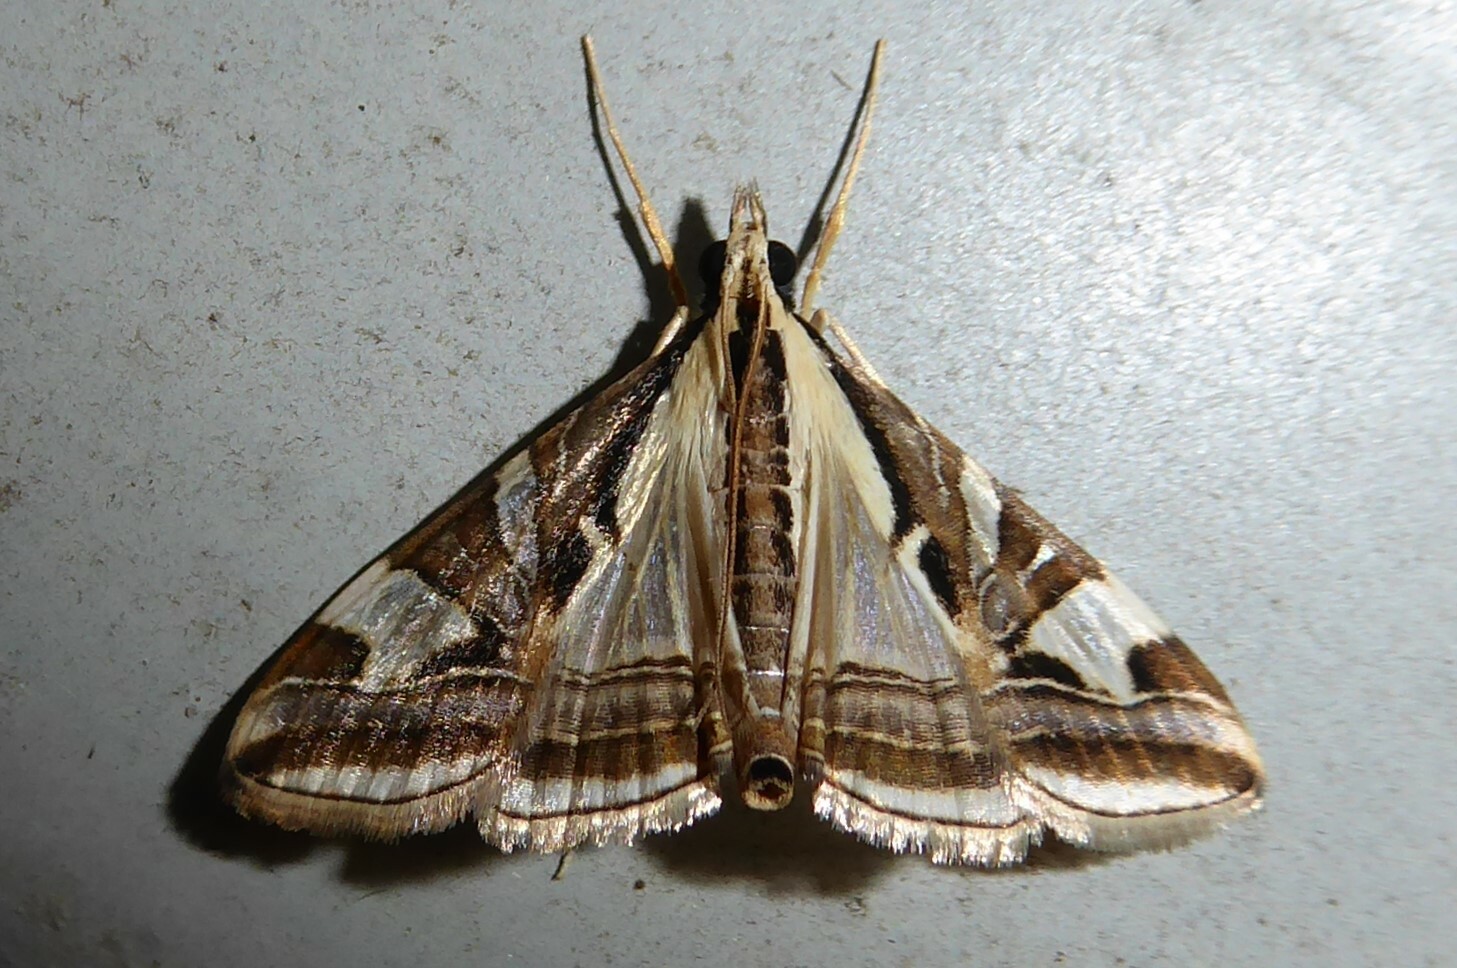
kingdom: Animalia
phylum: Arthropoda
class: Insecta
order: Lepidoptera
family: Crambidae
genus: Agrioglypta
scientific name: Agrioglypta excelsalis
